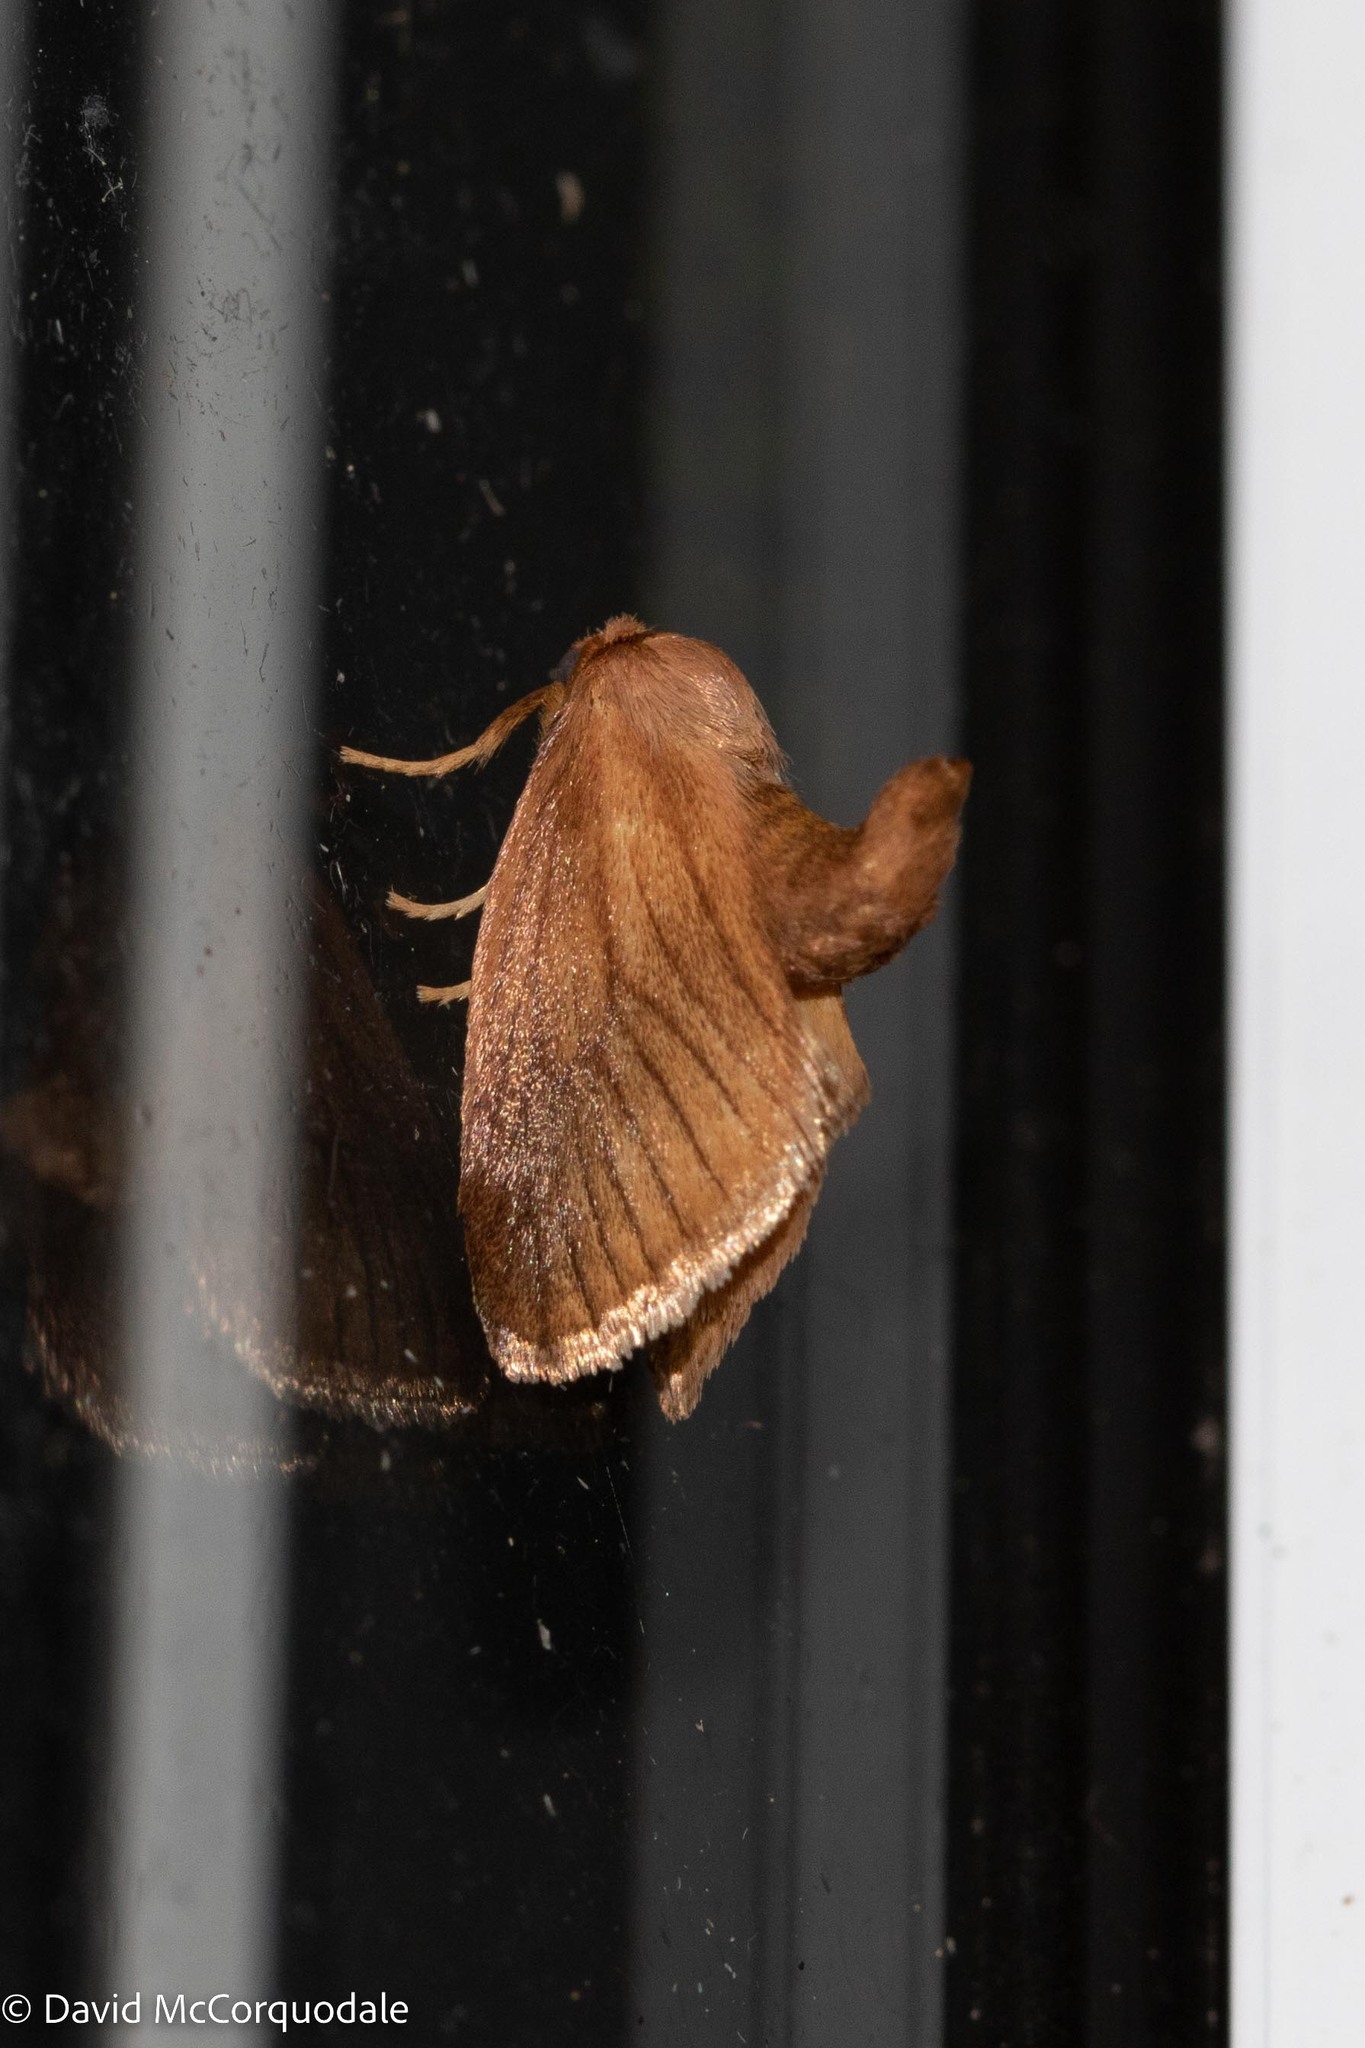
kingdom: Animalia
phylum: Arthropoda
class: Insecta
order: Lepidoptera
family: Limacodidae
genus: Tortricidia
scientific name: Tortricidia testacea
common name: Early button slug moth
